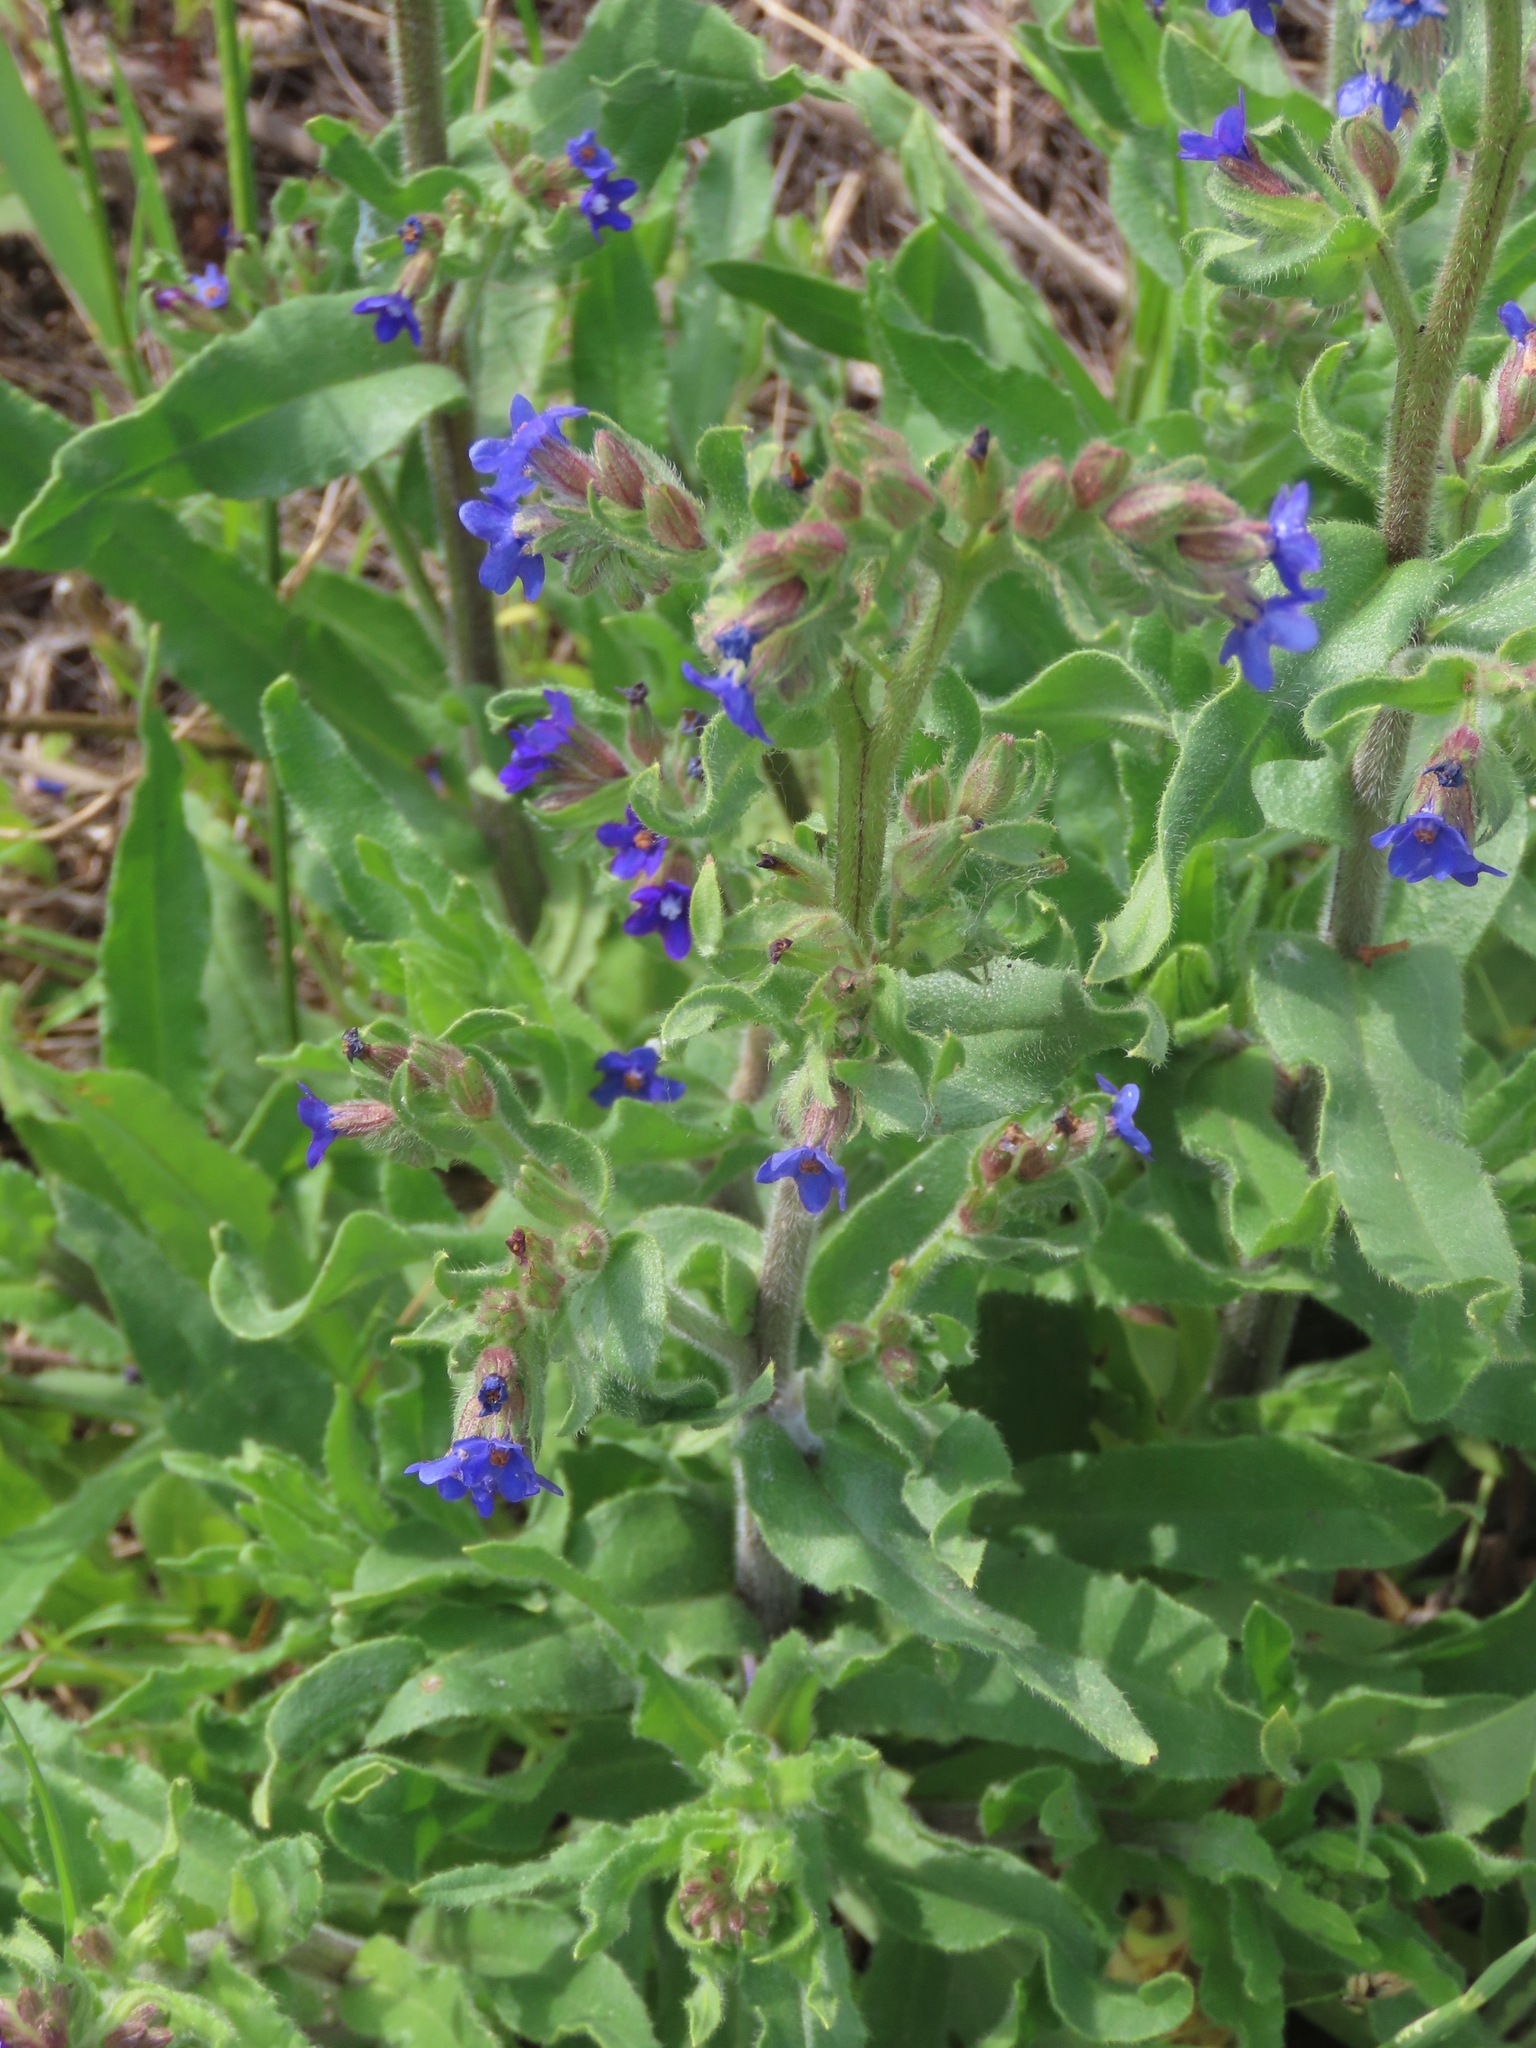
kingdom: Plantae
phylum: Tracheophyta
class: Magnoliopsida
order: Boraginales
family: Boraginaceae
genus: Anchusa
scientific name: Anchusa officinalis
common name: Alkanet
